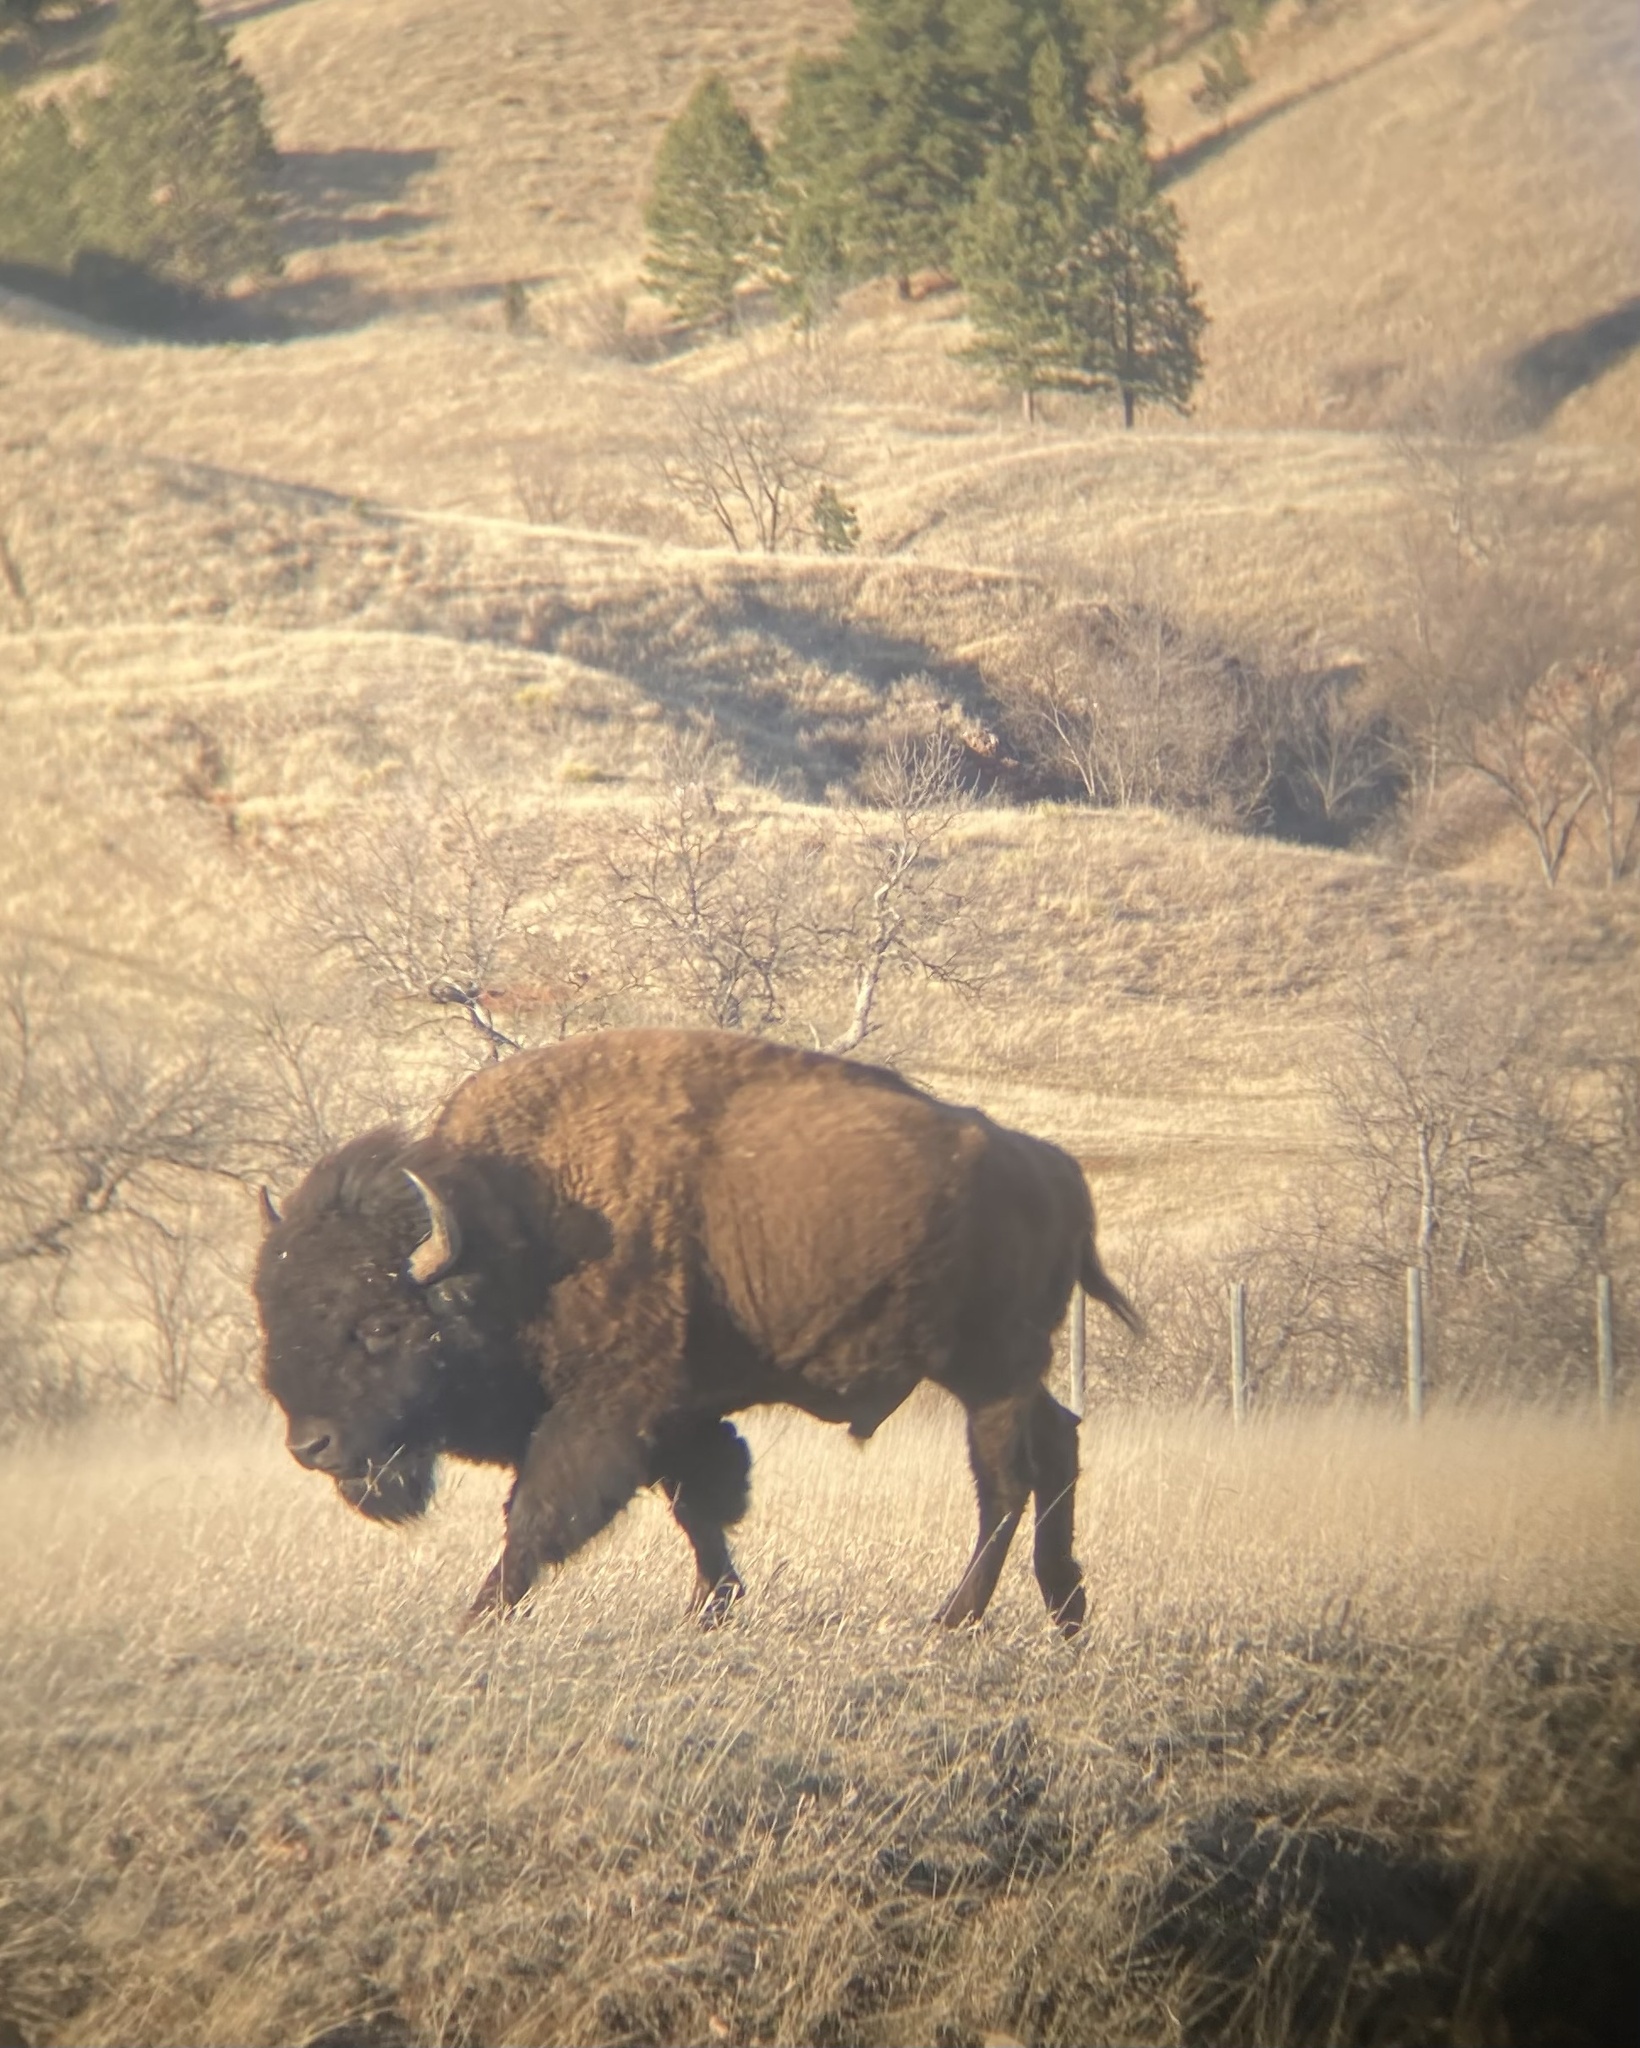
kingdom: Animalia
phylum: Chordata
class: Mammalia
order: Artiodactyla
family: Bovidae
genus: Bison
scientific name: Bison bison
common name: American bison
